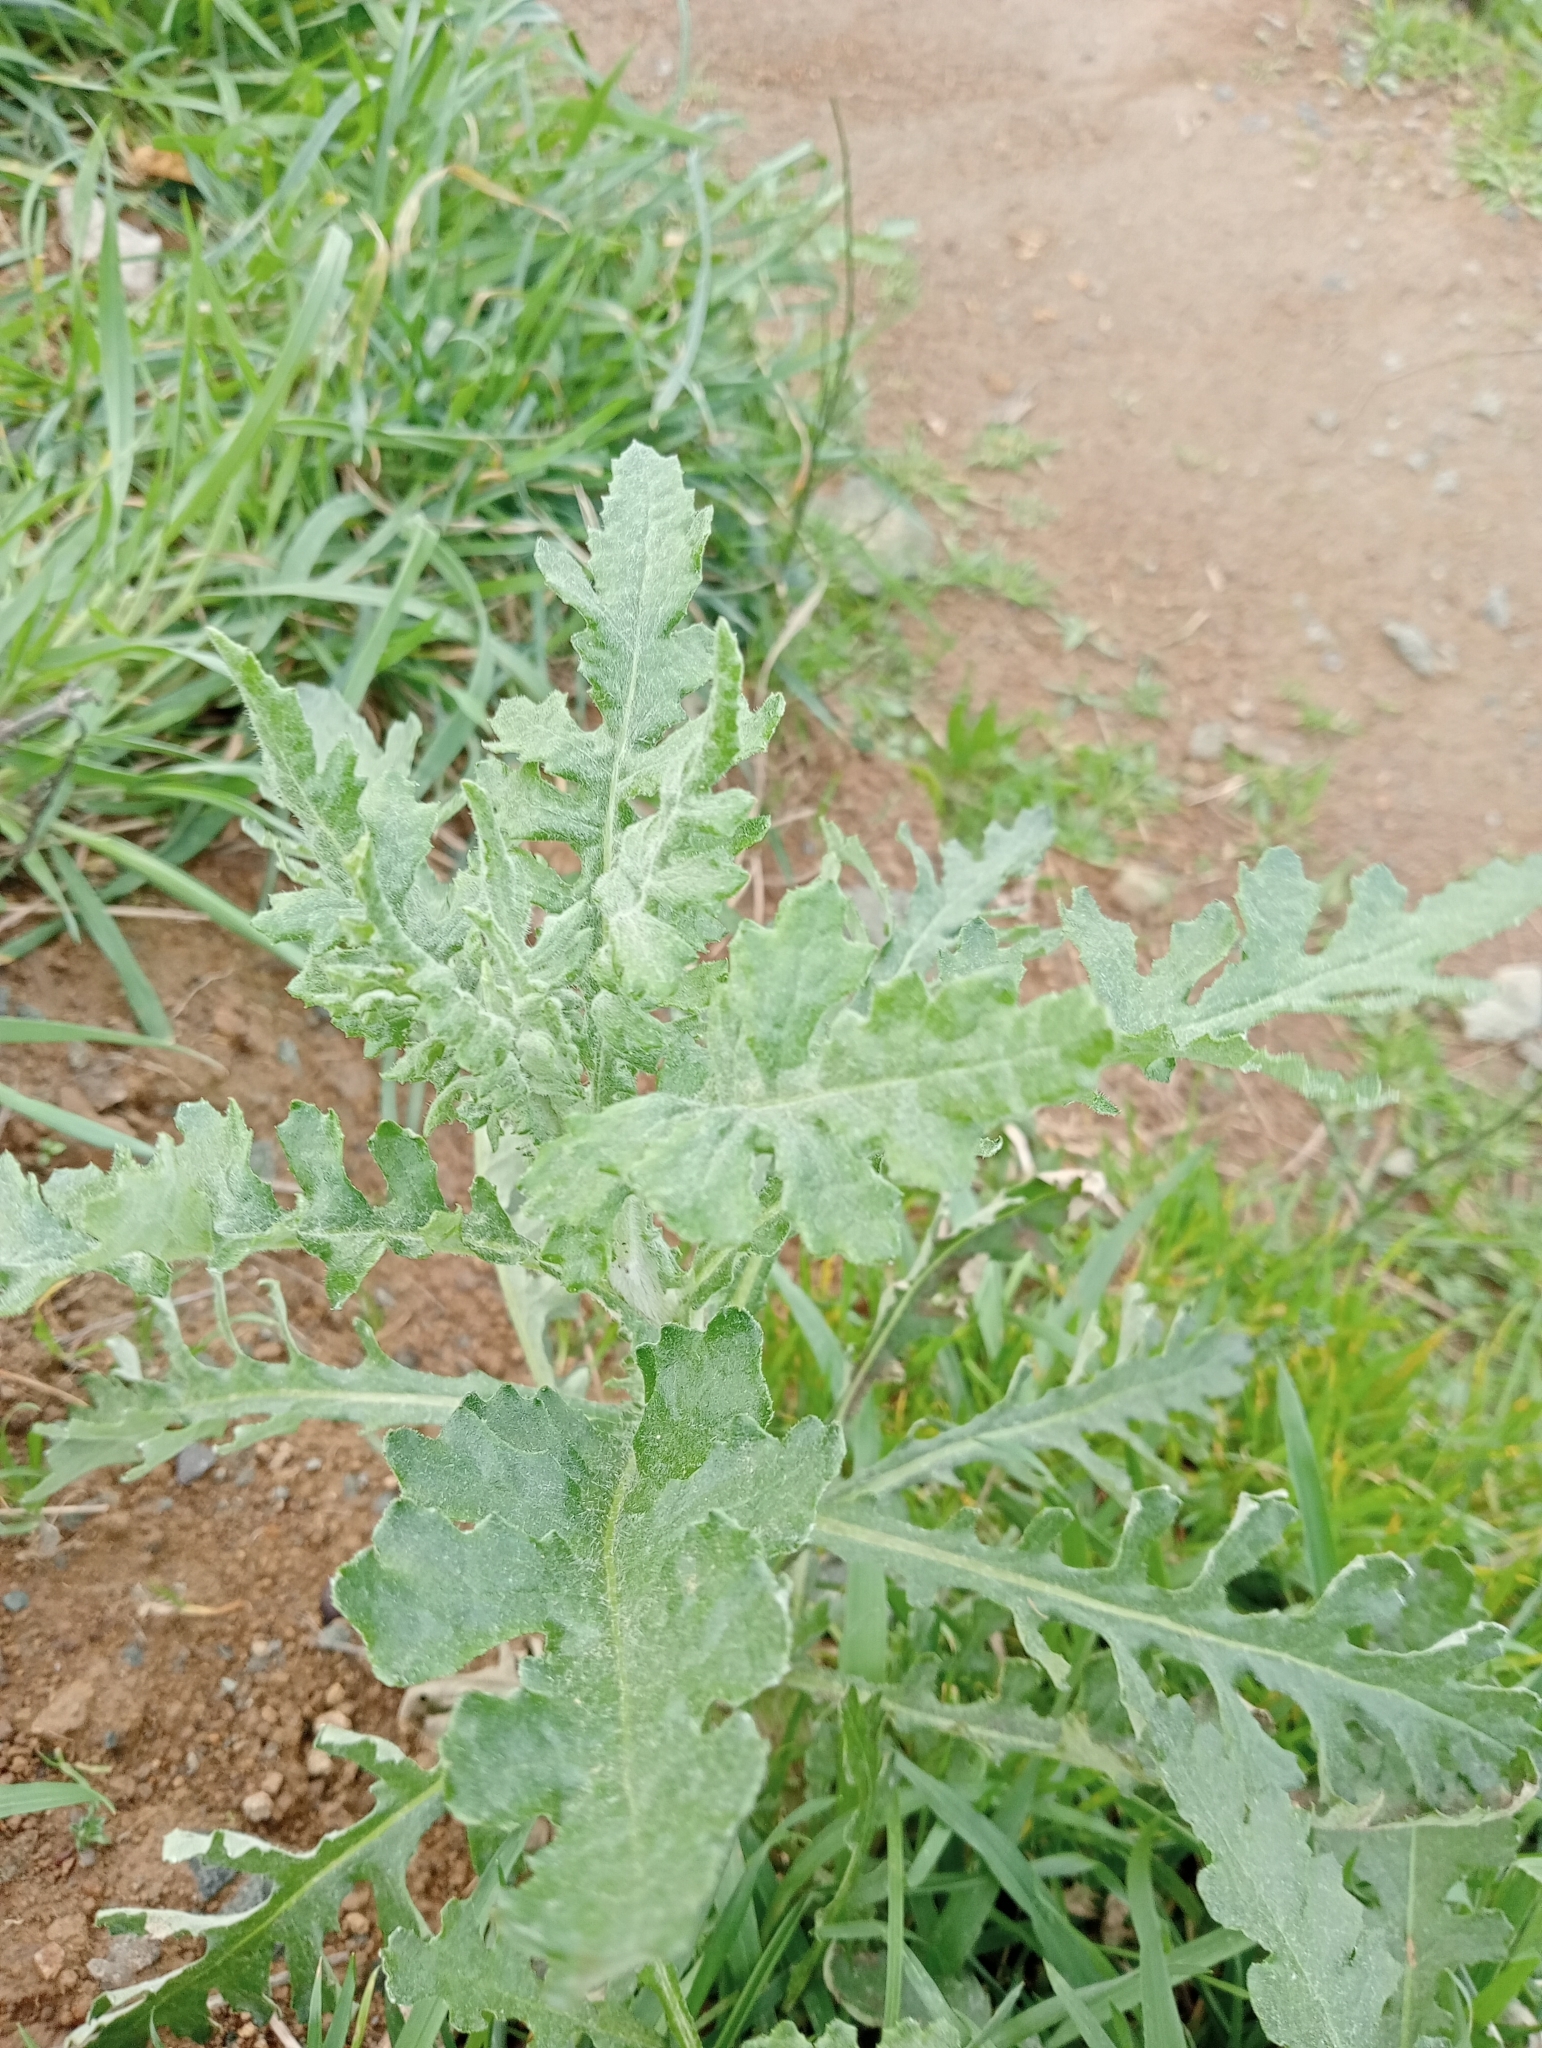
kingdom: Plantae
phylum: Tracheophyta
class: Magnoliopsida
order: Asterales
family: Asteraceae
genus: Senecio
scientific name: Senecio glomeratus
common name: Cutleaf burnweed
